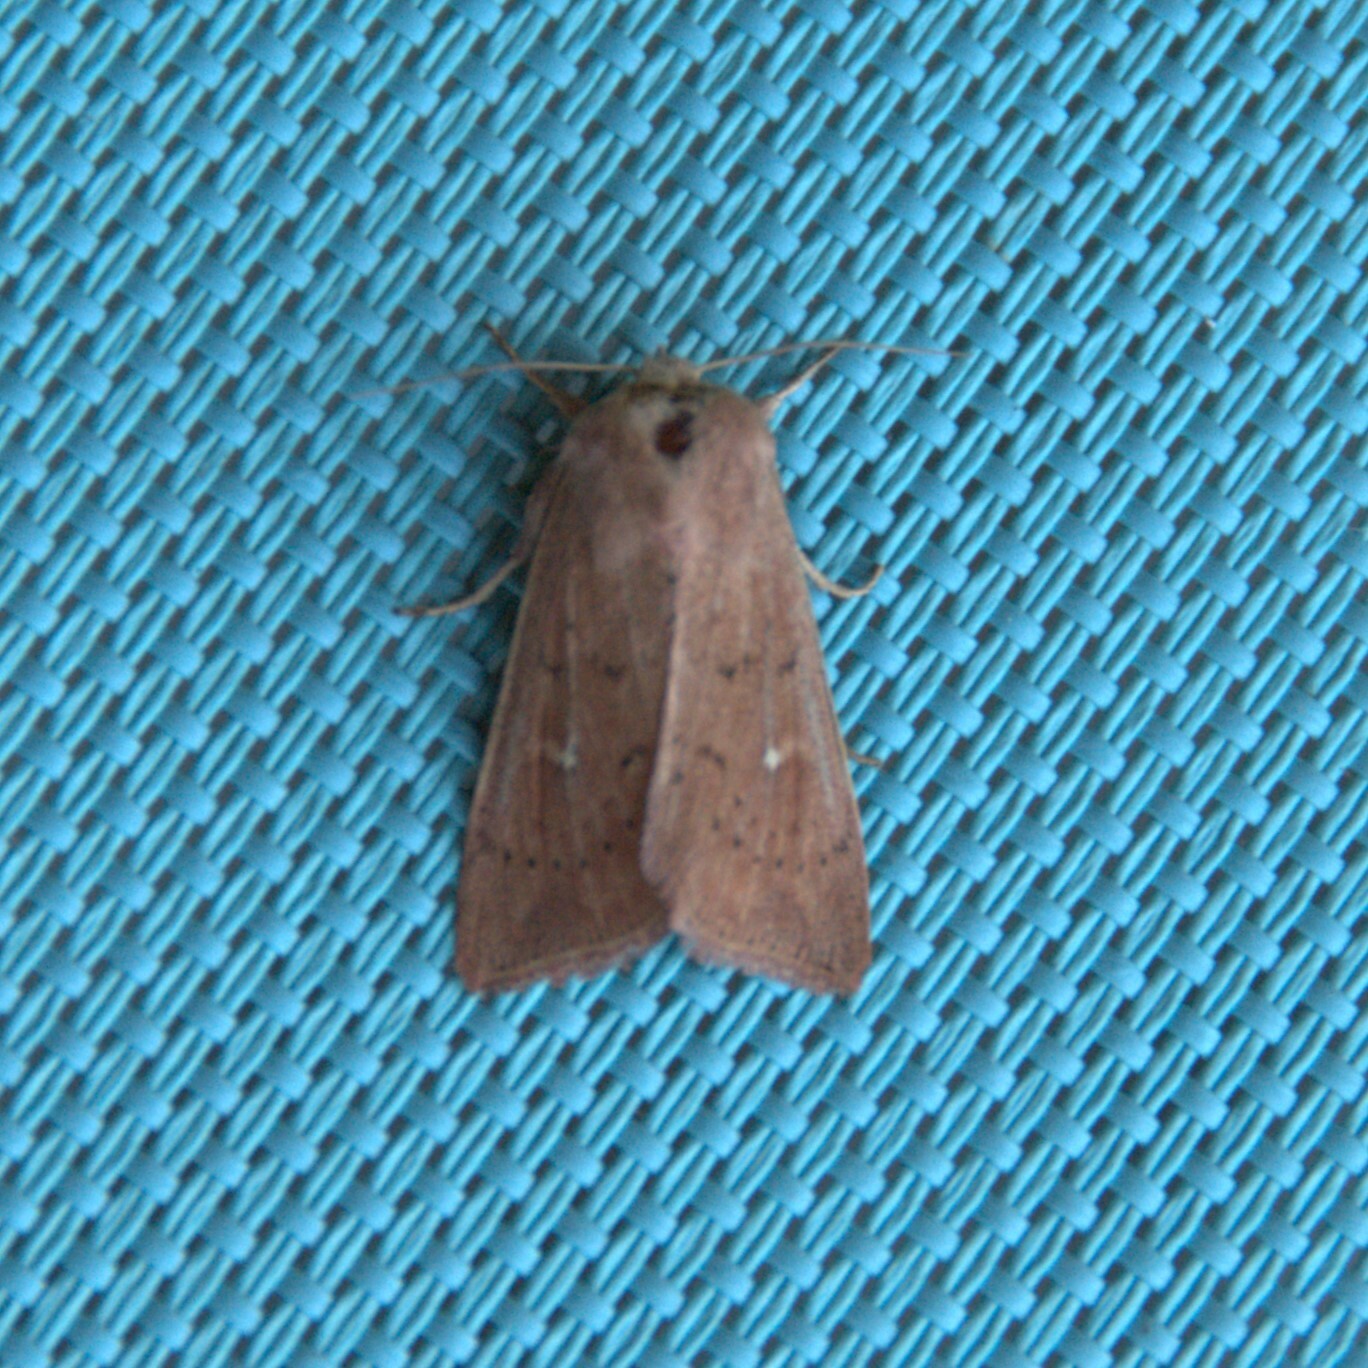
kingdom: Animalia
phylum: Arthropoda
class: Insecta
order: Lepidoptera
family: Noctuidae
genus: Mythimna
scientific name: Mythimna ferrago
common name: Clay
